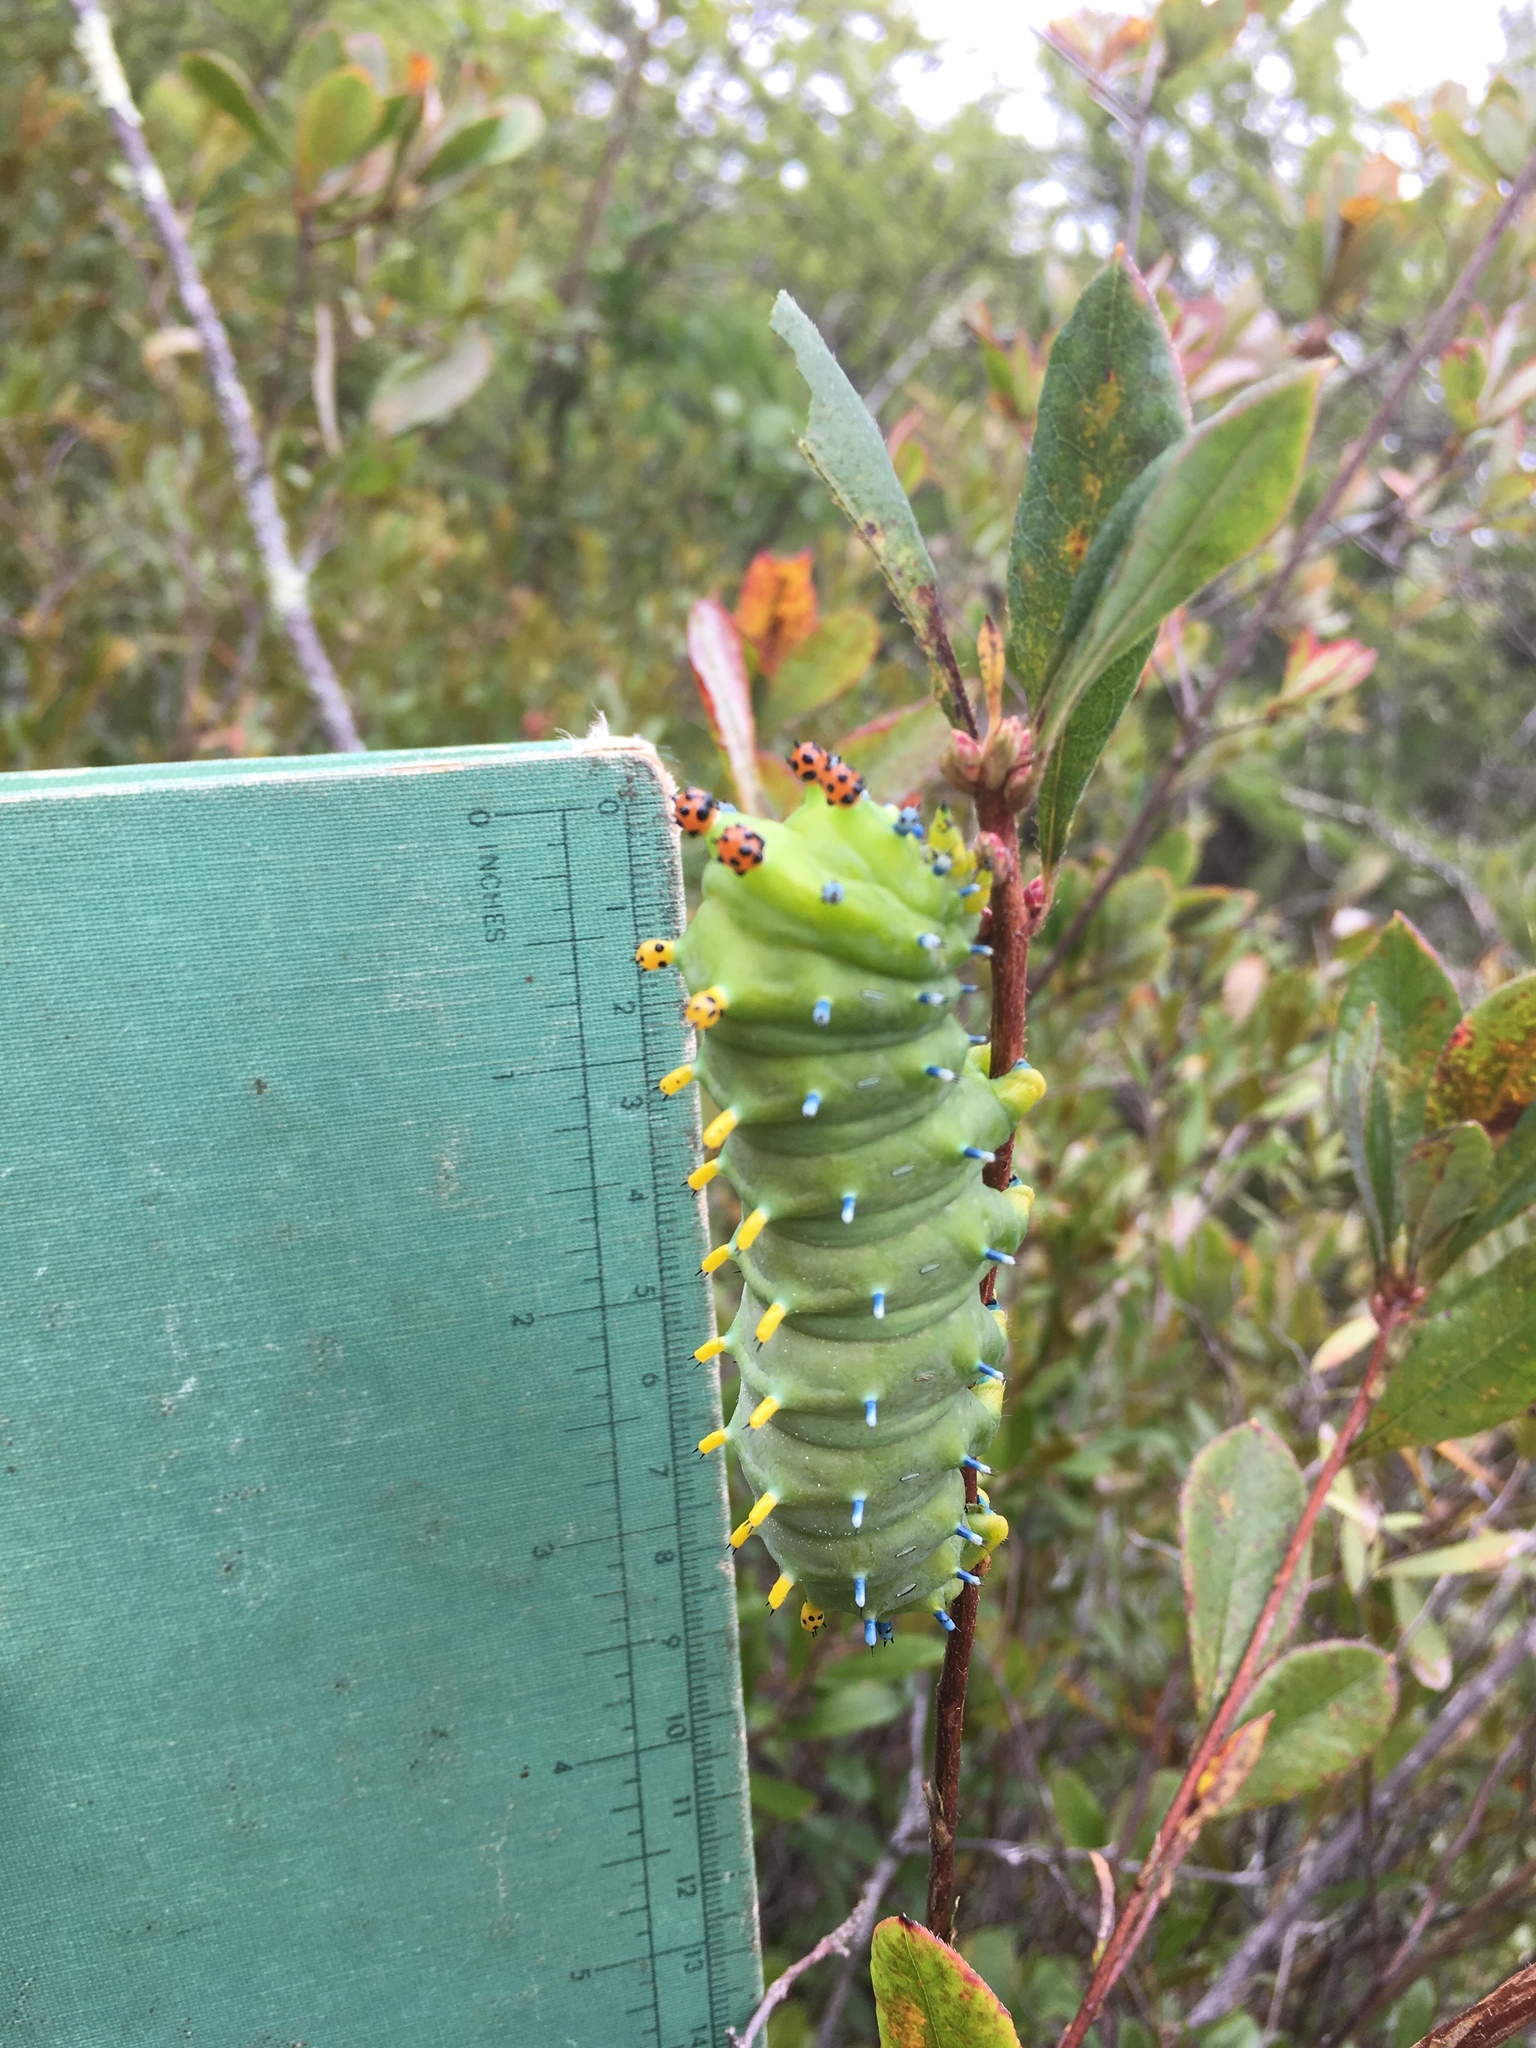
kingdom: Animalia
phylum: Arthropoda
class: Insecta
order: Lepidoptera
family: Saturniidae
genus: Hyalophora
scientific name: Hyalophora cecropia
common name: Cecropia silkmoth
